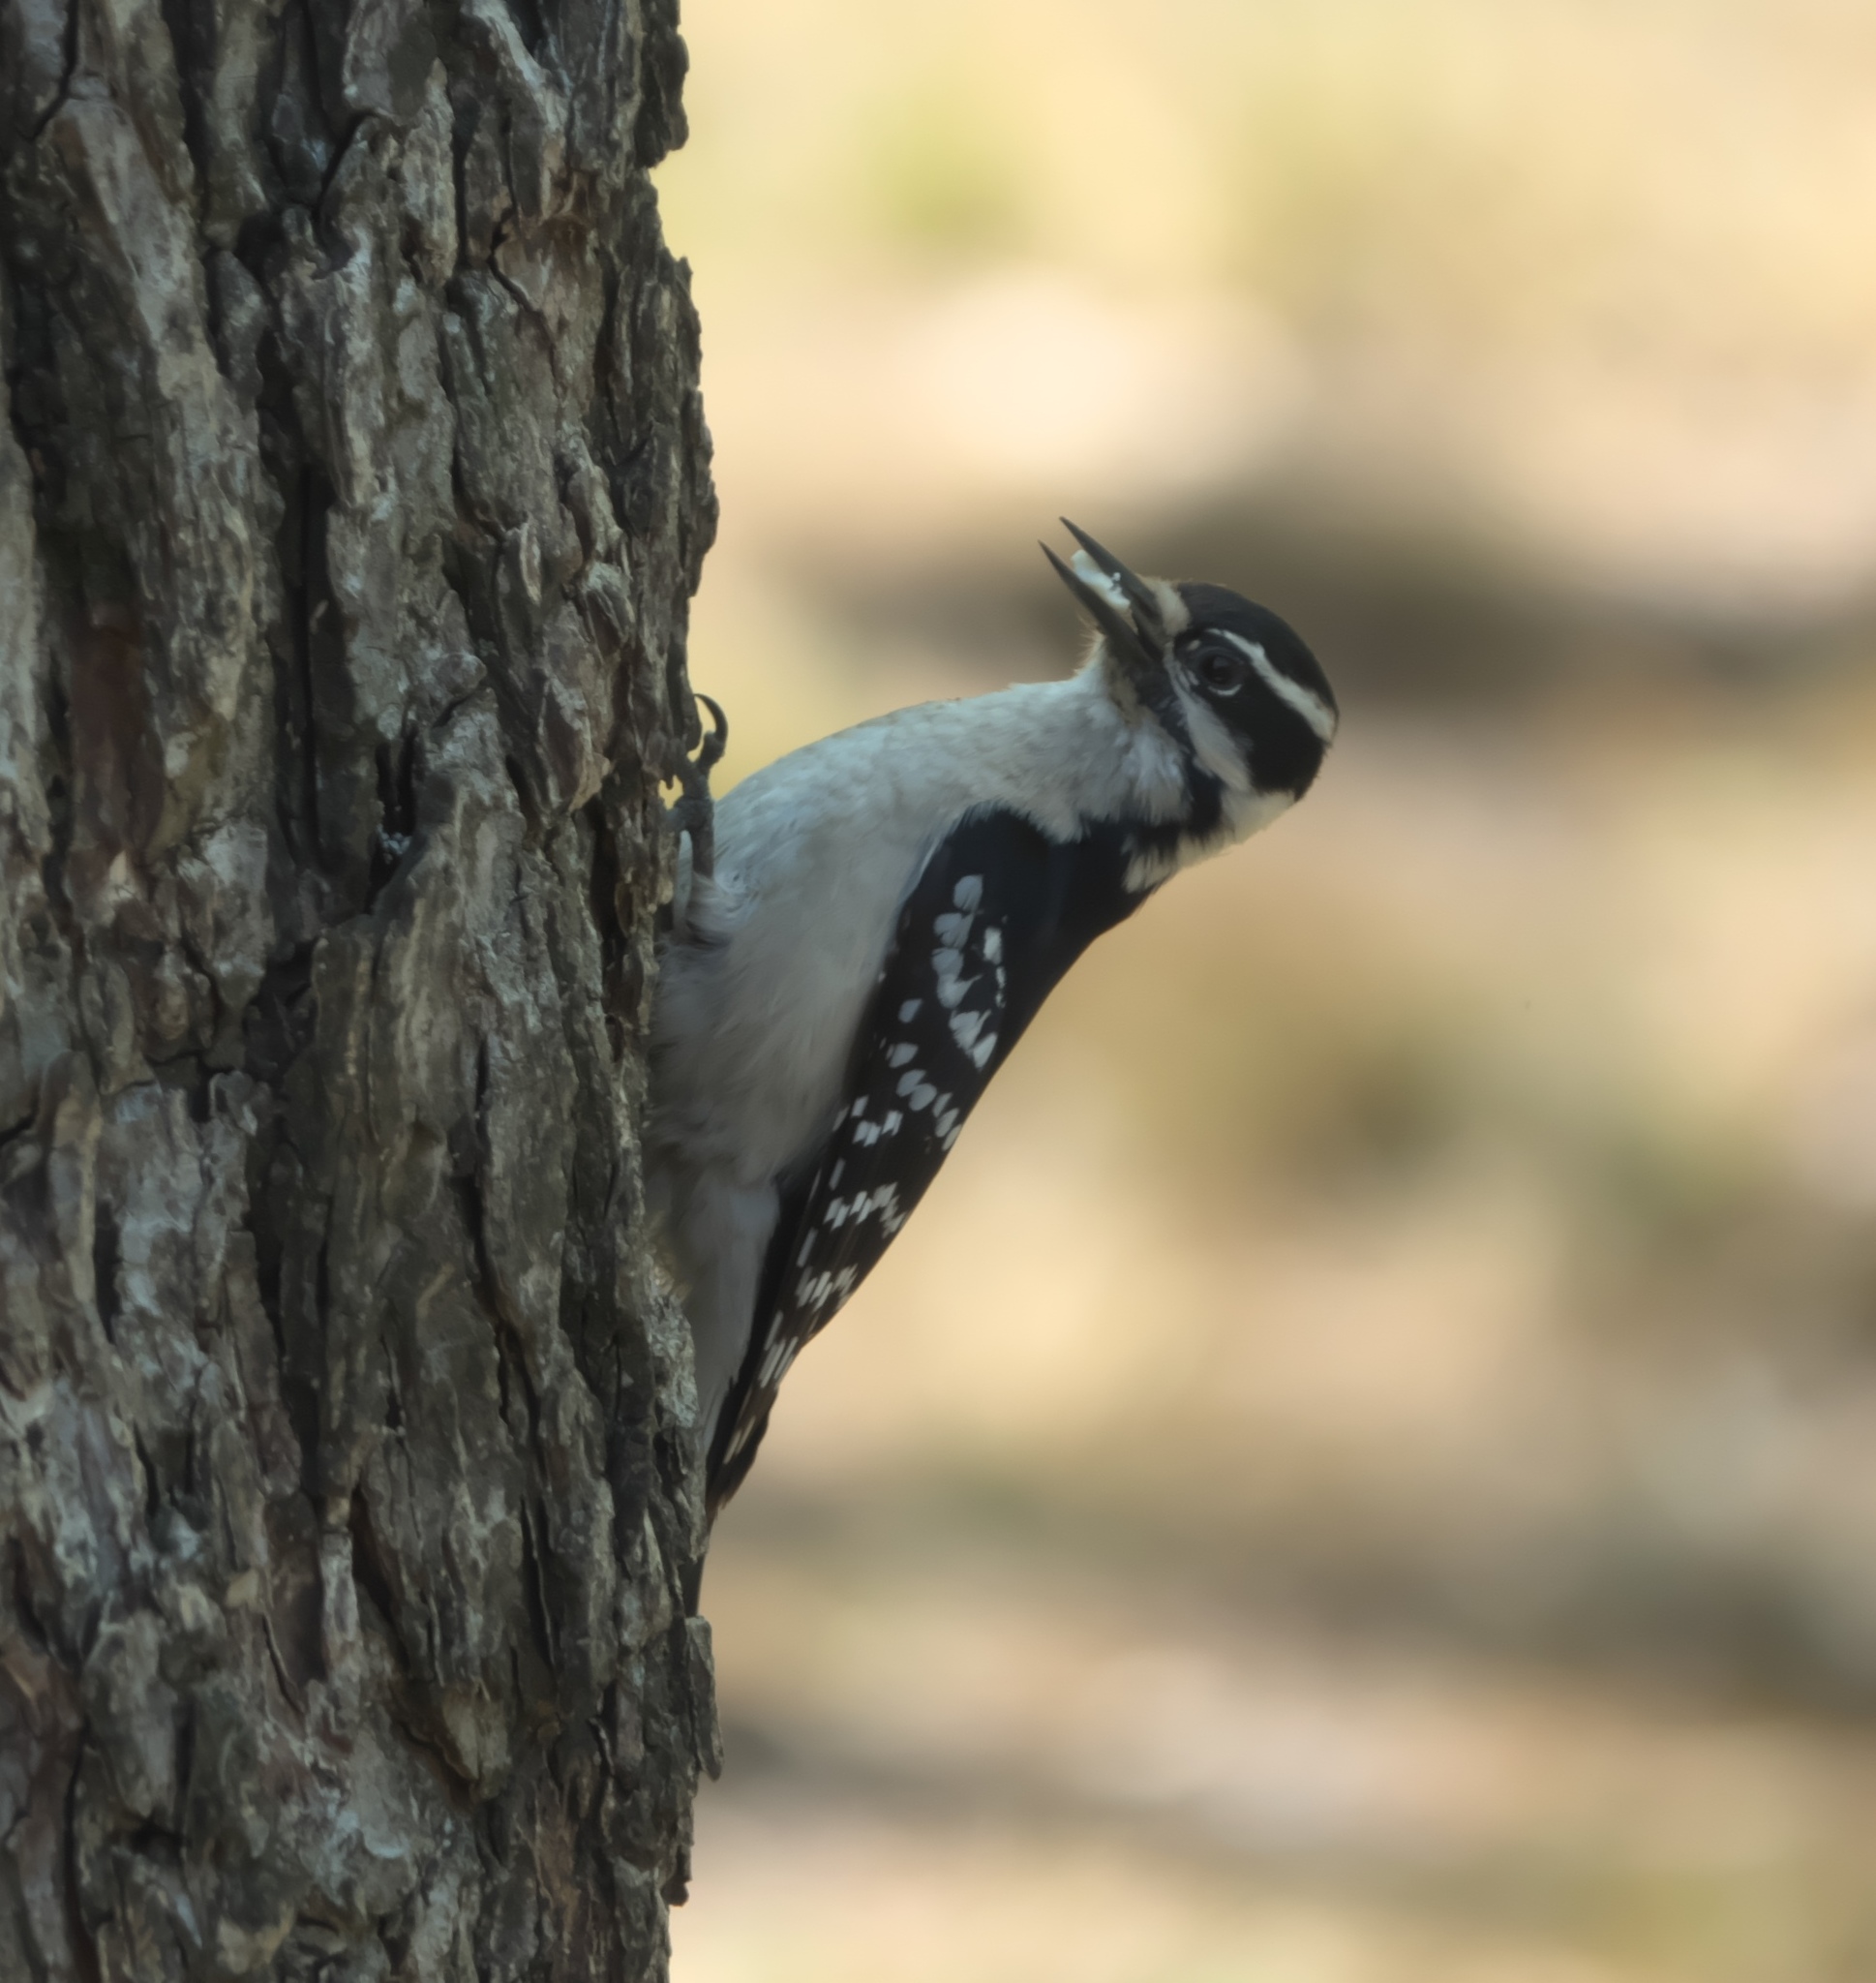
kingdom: Animalia
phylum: Chordata
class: Aves
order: Piciformes
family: Picidae
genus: Dryobates
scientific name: Dryobates pubescens
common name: Downy woodpecker
